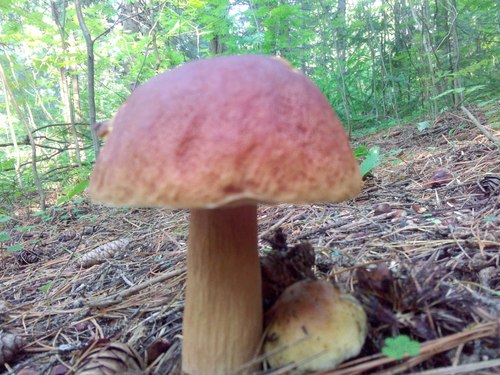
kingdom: Fungi
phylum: Basidiomycota
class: Agaricomycetes
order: Boletales
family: Boletaceae
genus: Boletus
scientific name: Boletus edulis
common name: Cep
